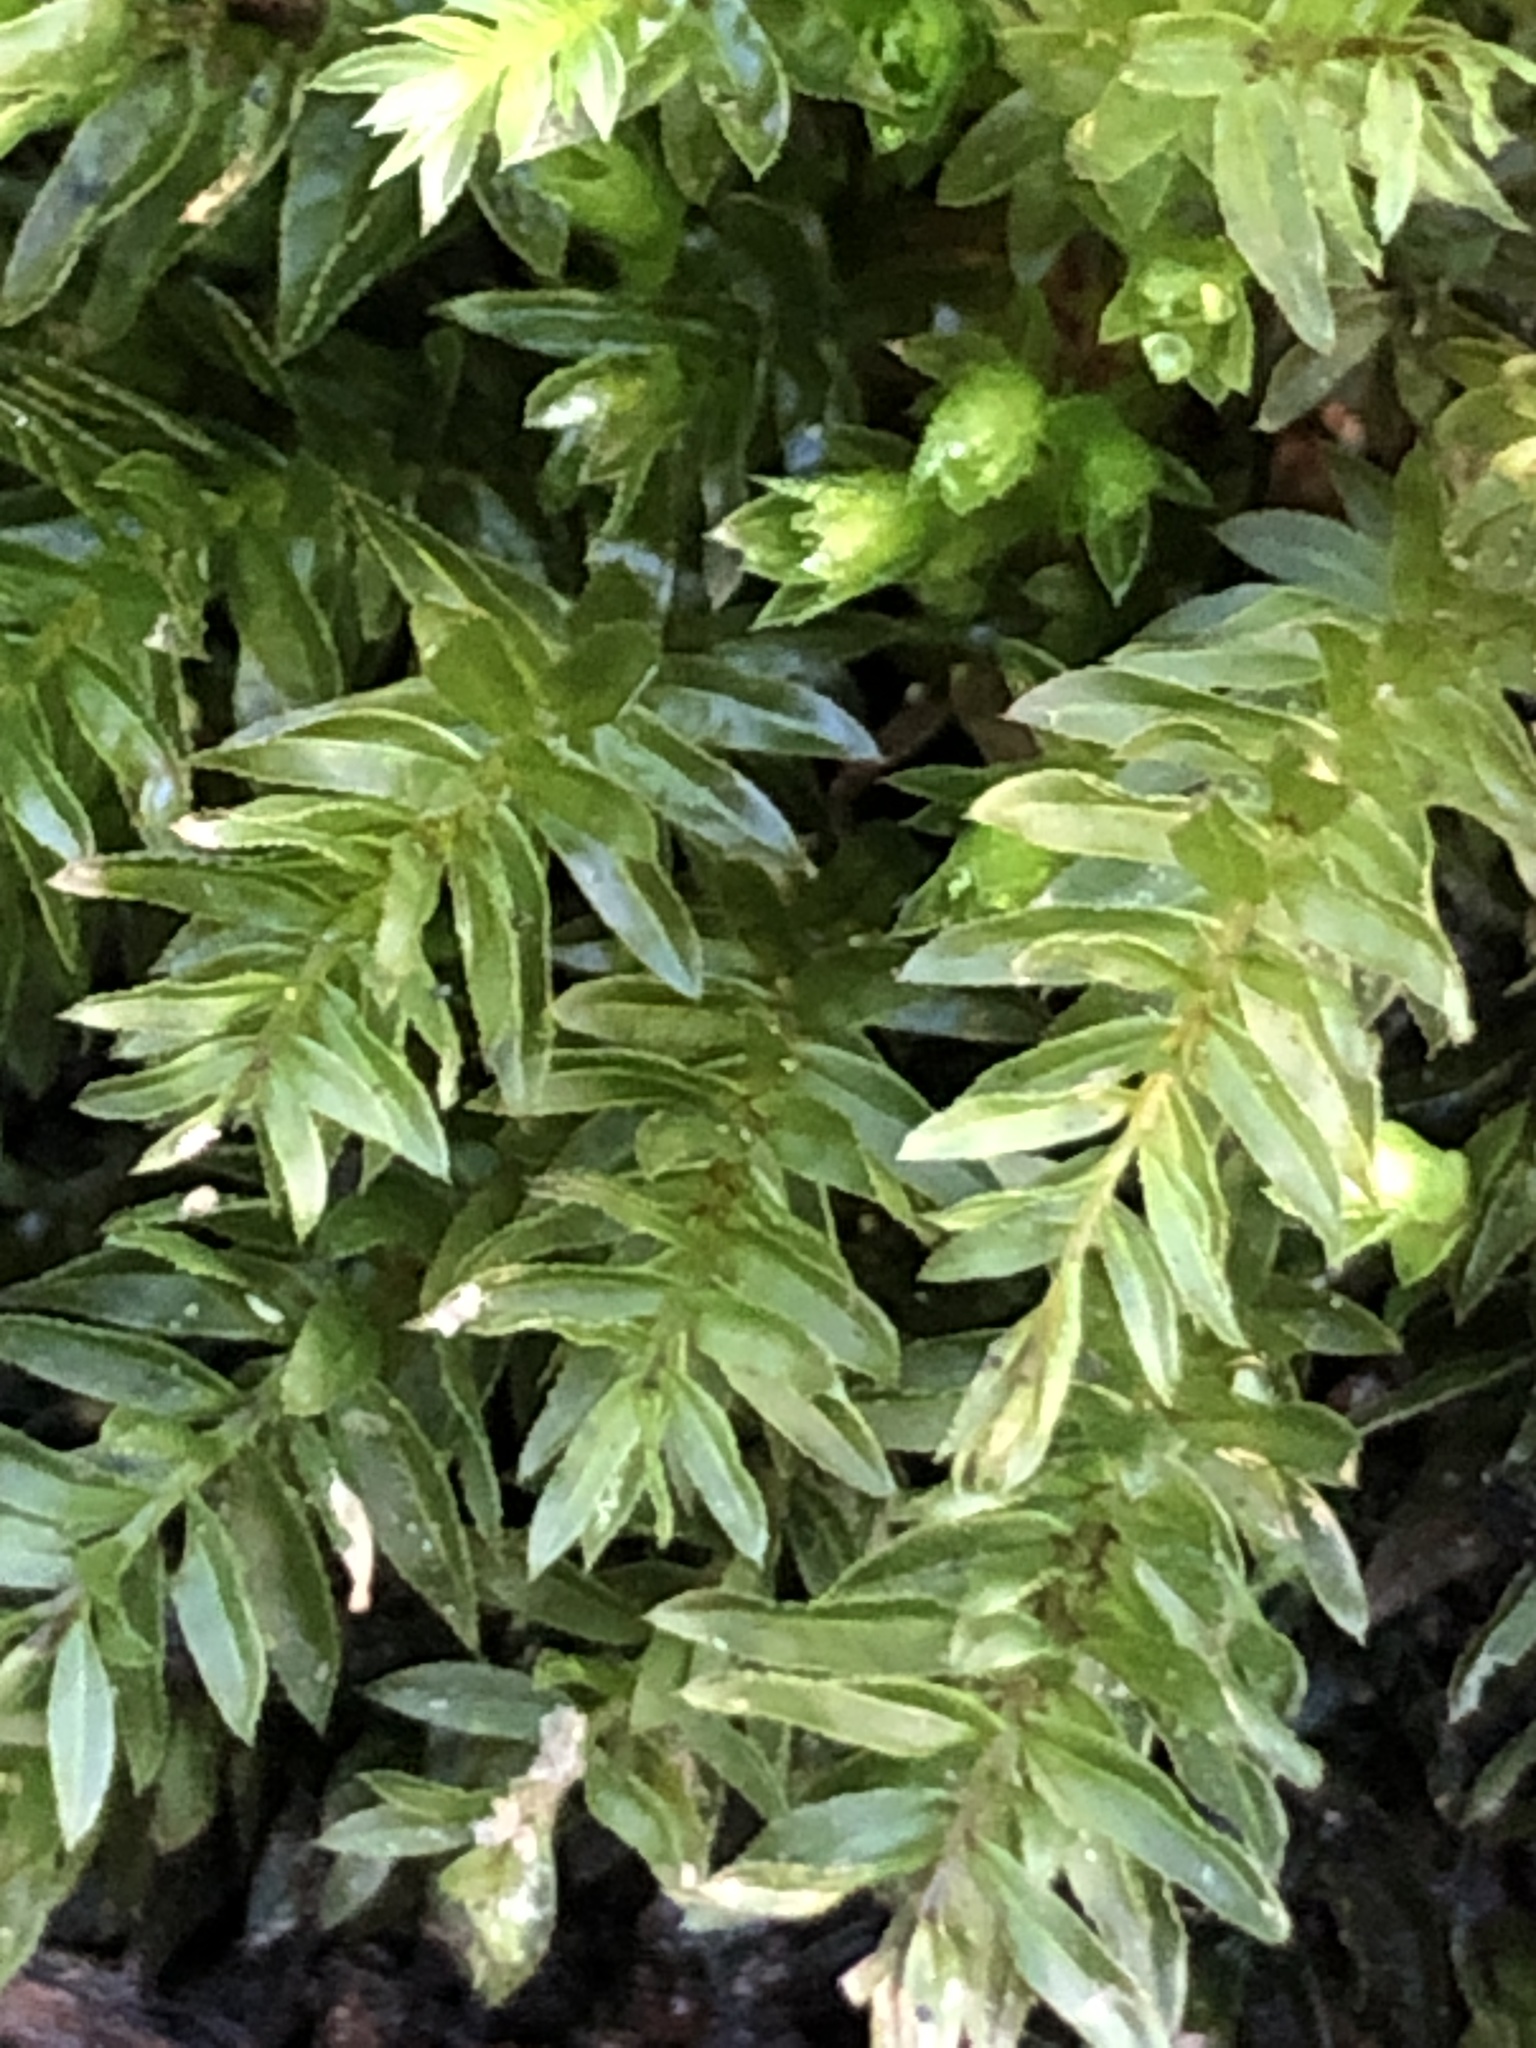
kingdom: Plantae
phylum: Bryophyta
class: Bryopsida
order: Bryales
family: Mniaceae
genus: Mnium
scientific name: Mnium hornum
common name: Swan's-neck leafy moss
